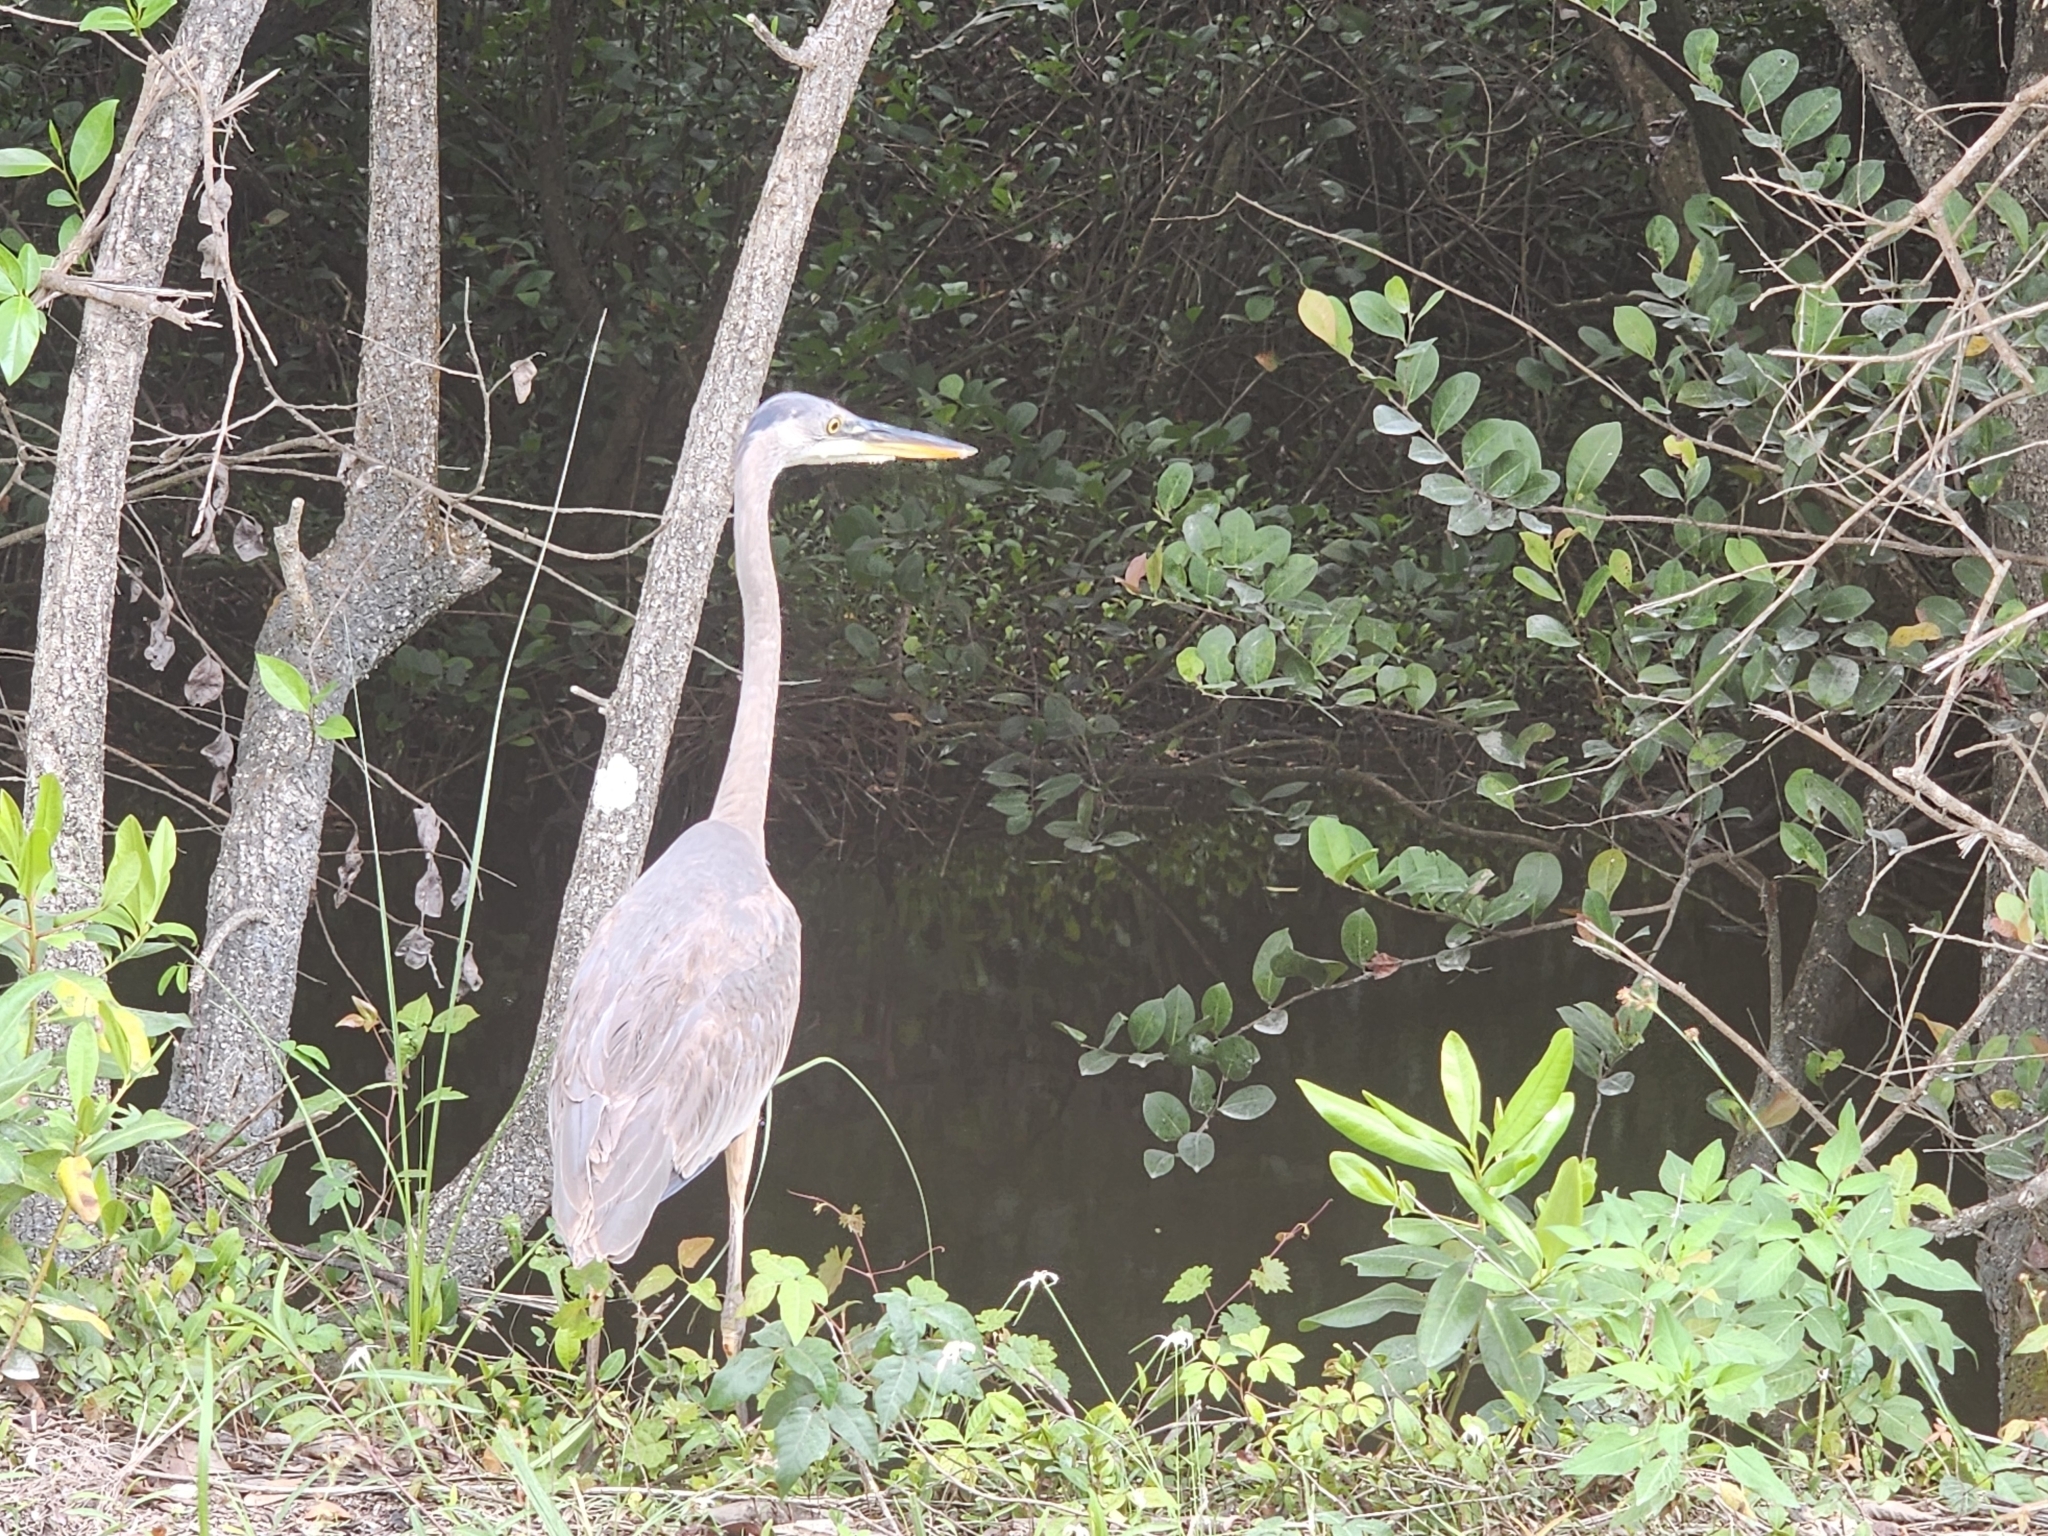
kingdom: Animalia
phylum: Chordata
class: Aves
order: Pelecaniformes
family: Ardeidae
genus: Ardea
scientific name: Ardea herodias
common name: Great blue heron
